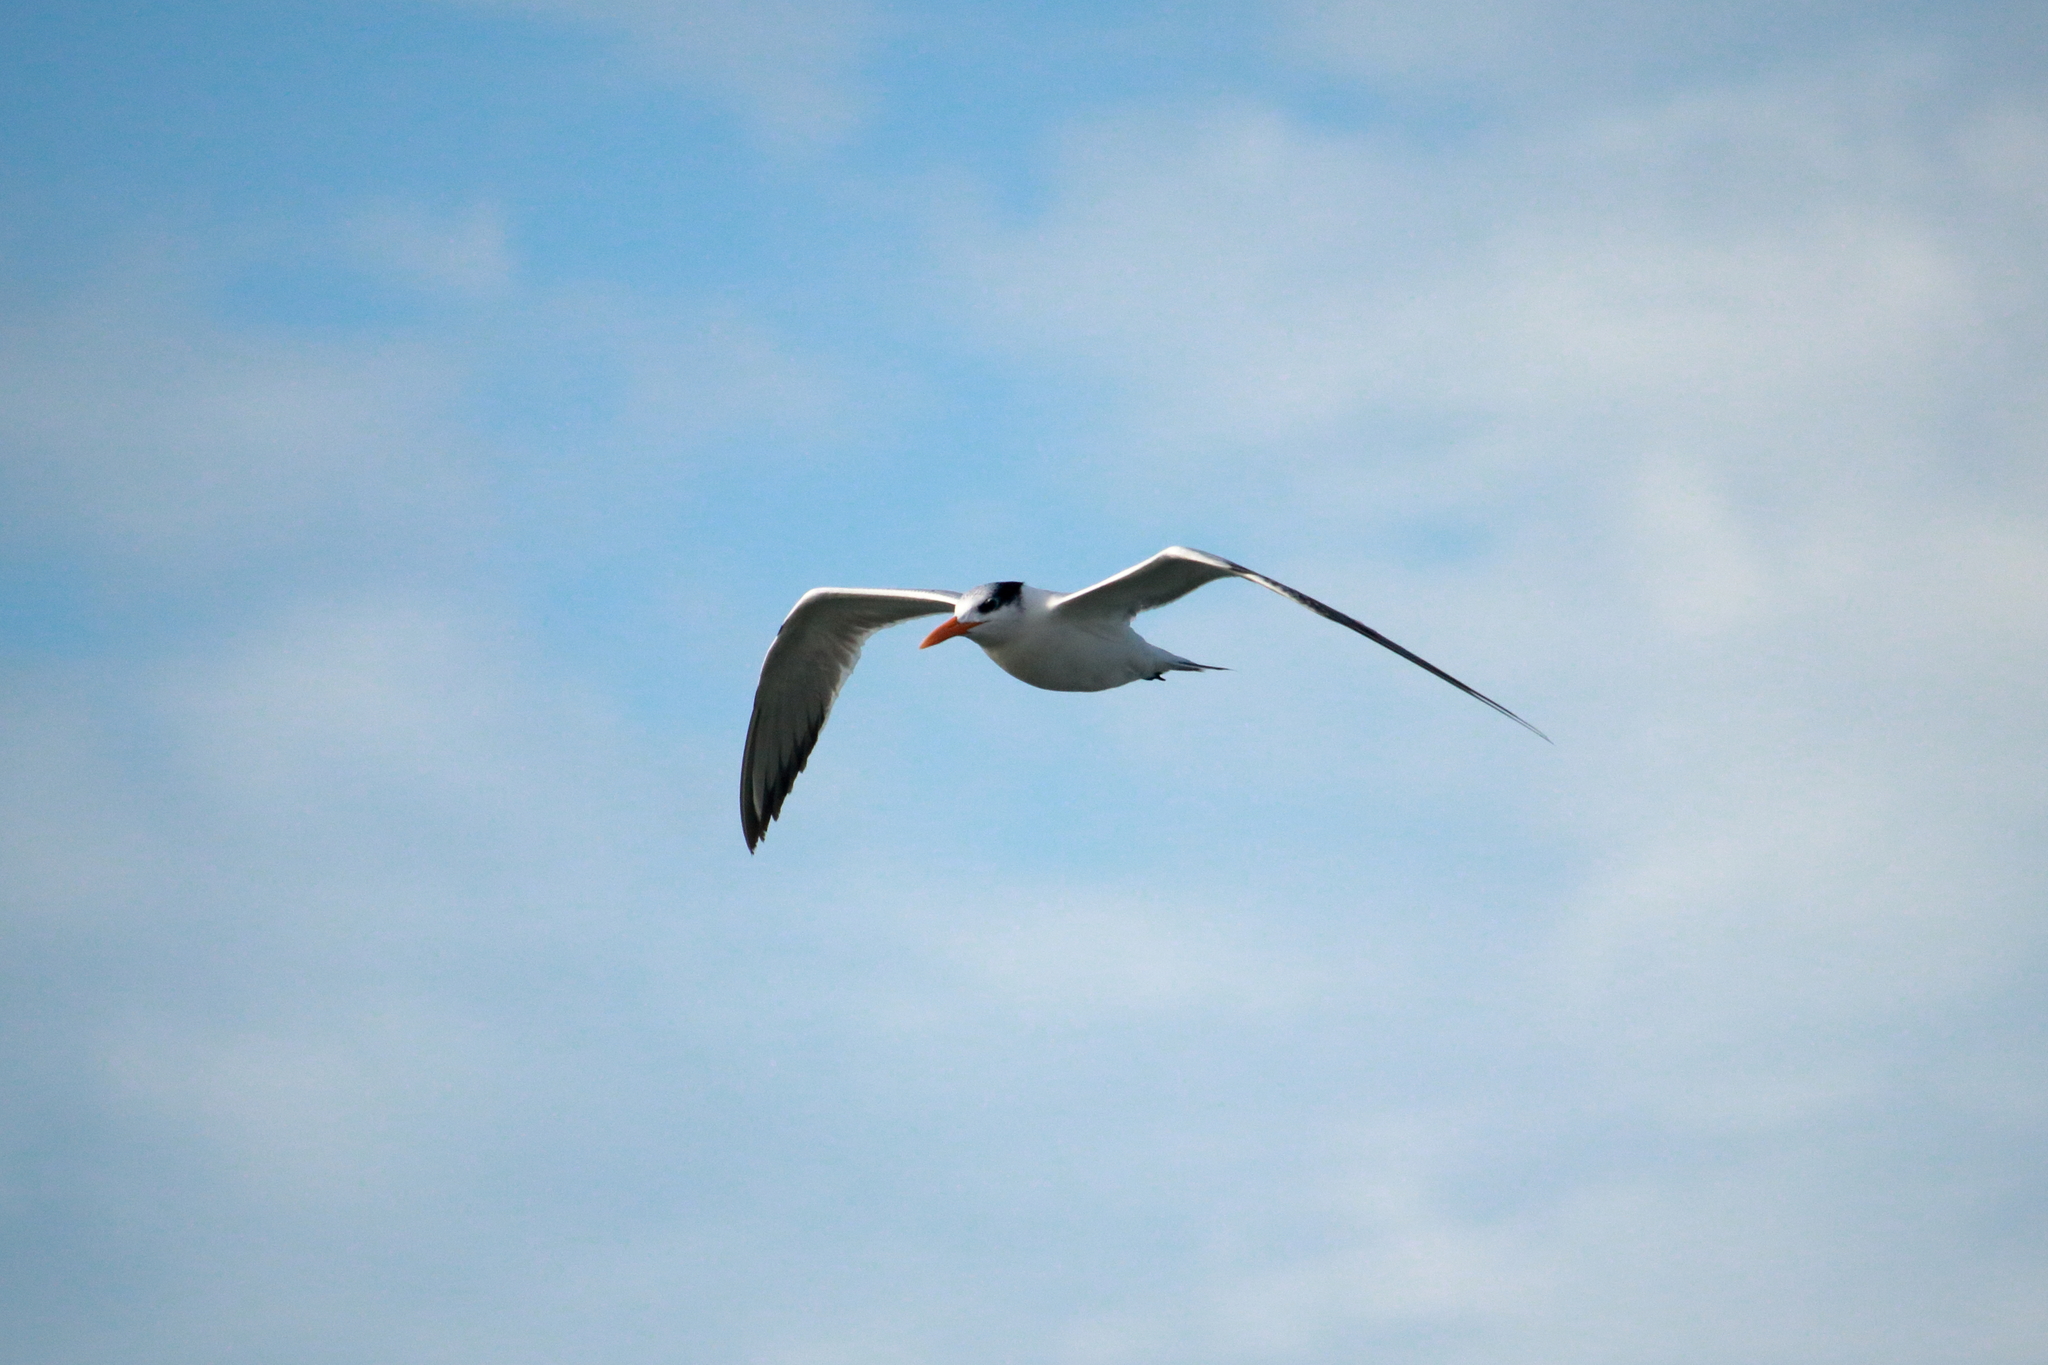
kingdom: Animalia
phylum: Chordata
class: Aves
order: Charadriiformes
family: Laridae
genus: Thalasseus
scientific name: Thalasseus maximus
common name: Royal tern
